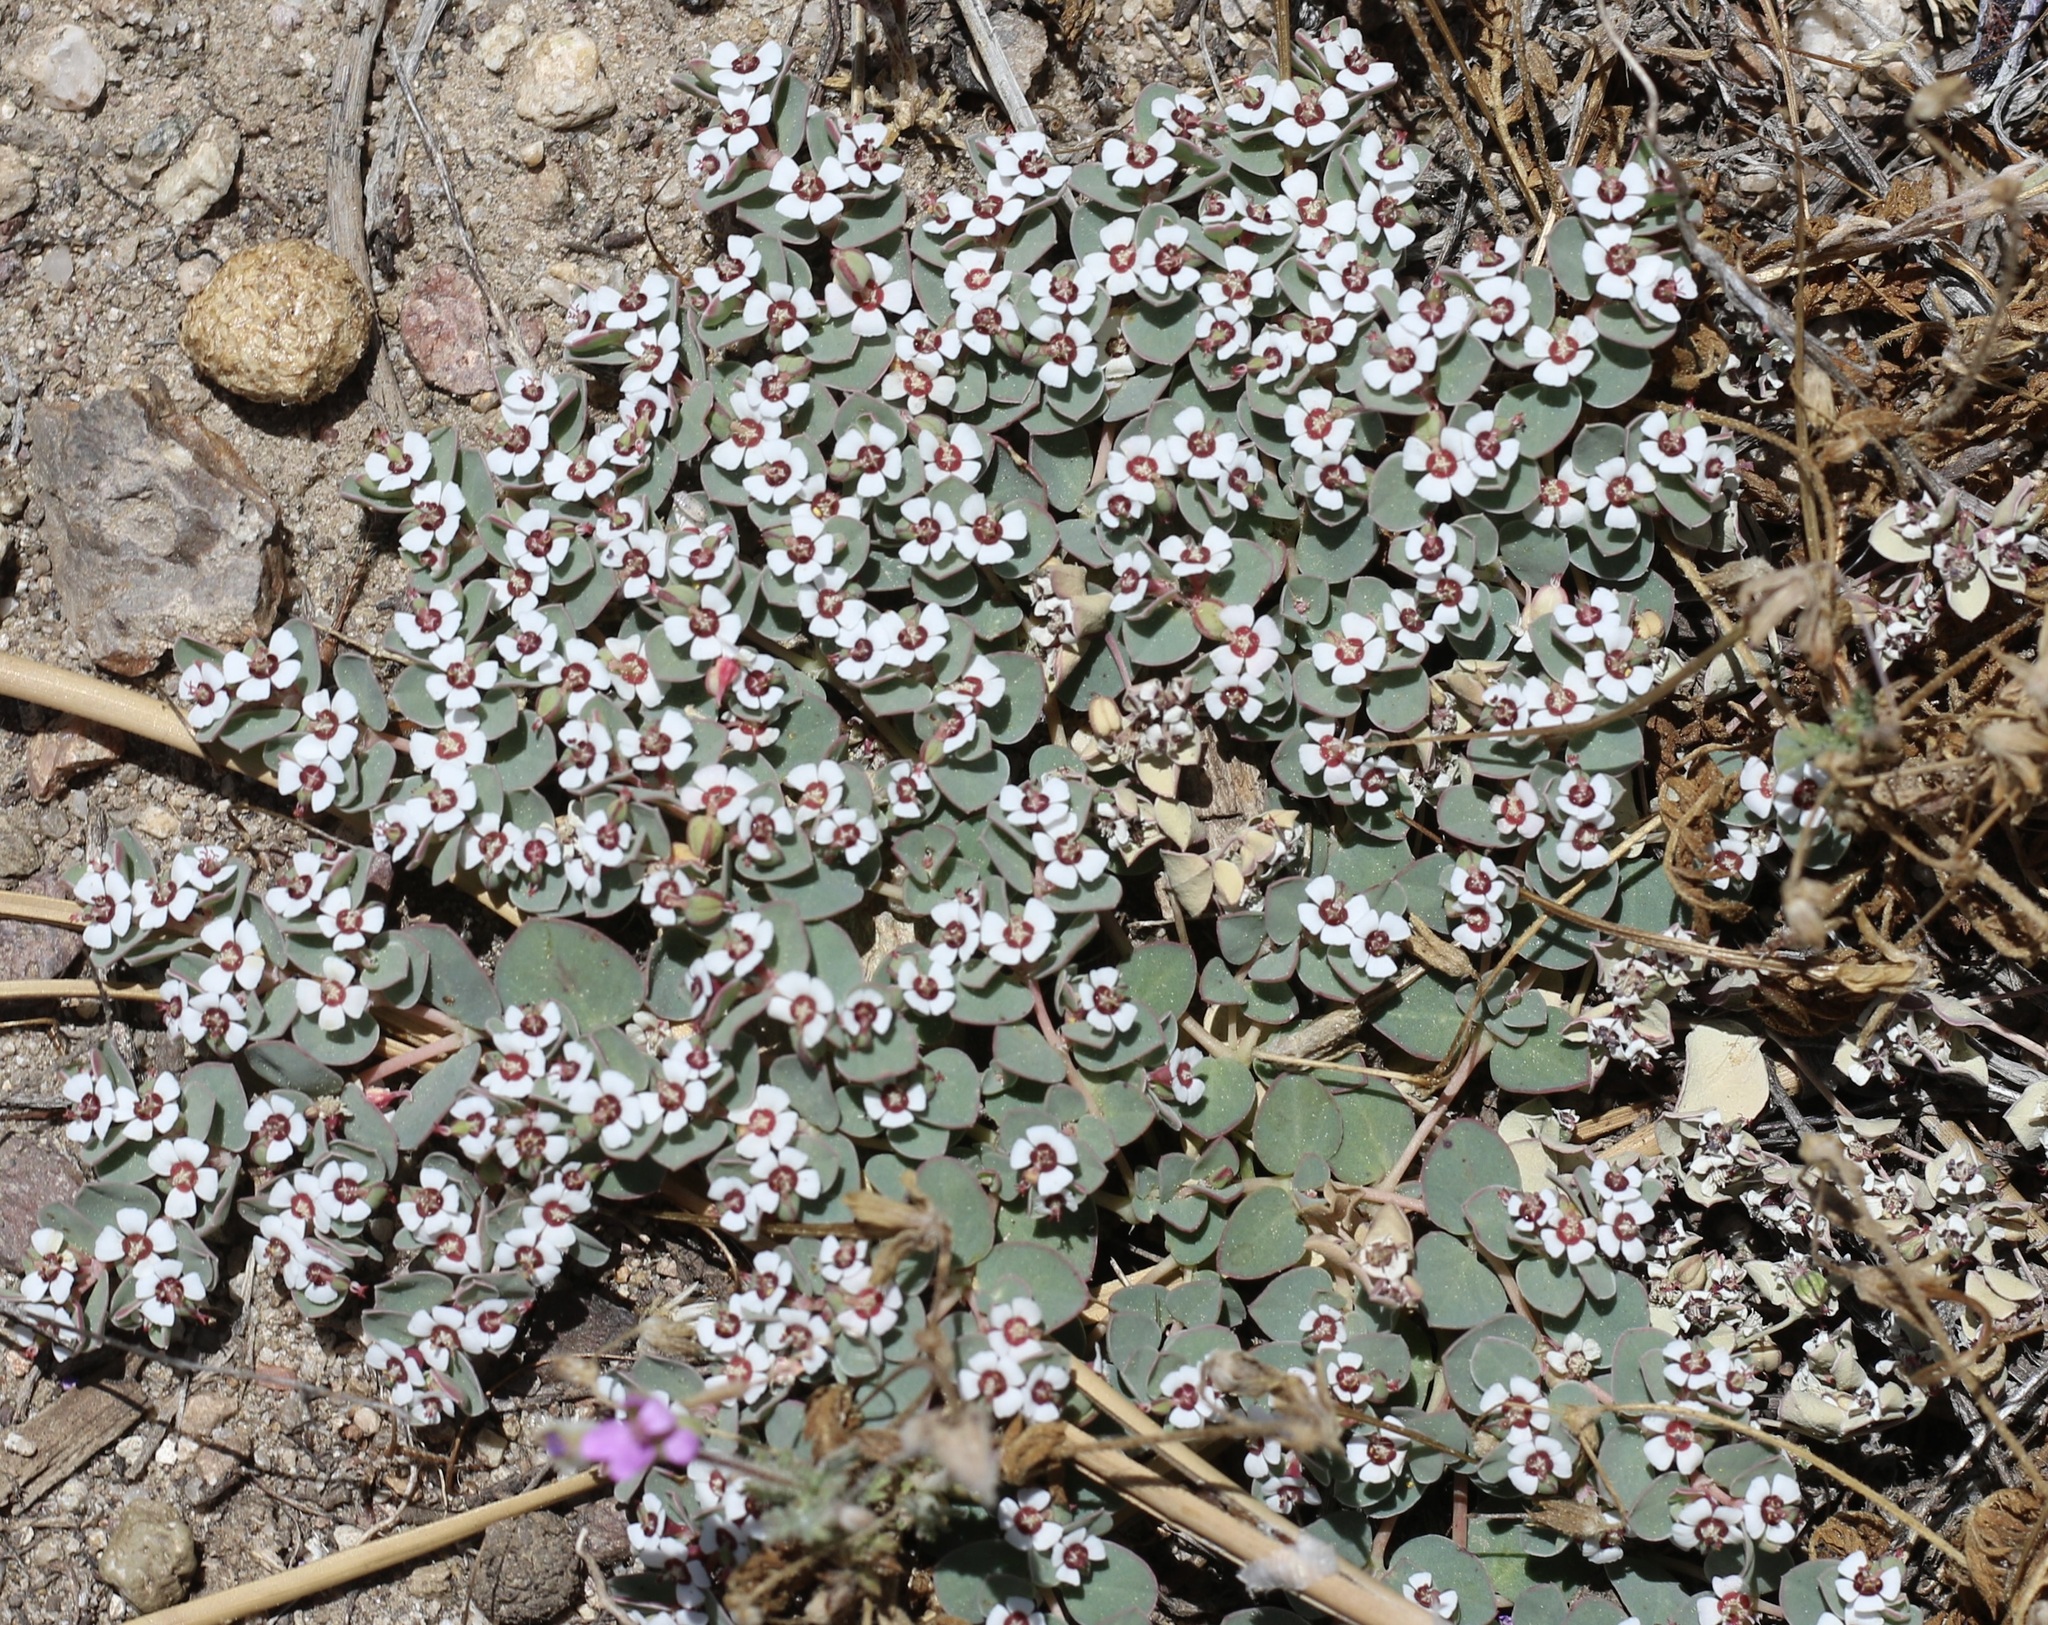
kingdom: Plantae
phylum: Tracheophyta
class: Magnoliopsida
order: Malpighiales
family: Euphorbiaceae
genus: Euphorbia
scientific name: Euphorbia albomarginata
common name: Whitemargin sandmat
